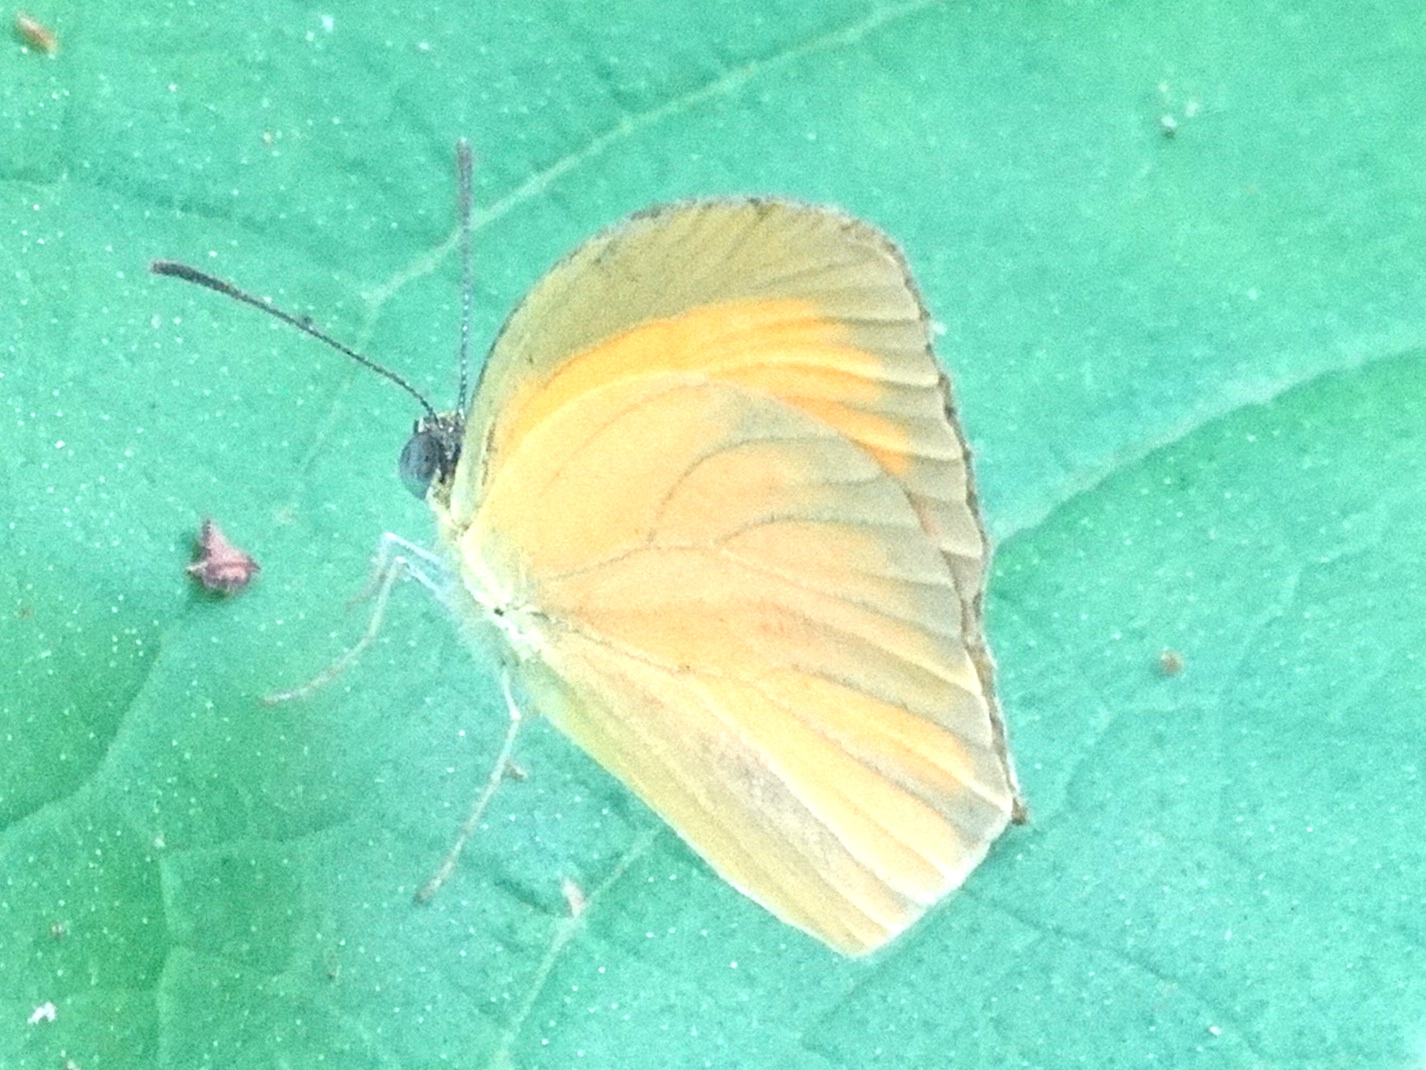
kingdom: Animalia
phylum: Arthropoda
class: Insecta
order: Lepidoptera
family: Pieridae
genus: Pyrisitia
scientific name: Pyrisitia proterpia
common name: Tailed orange
